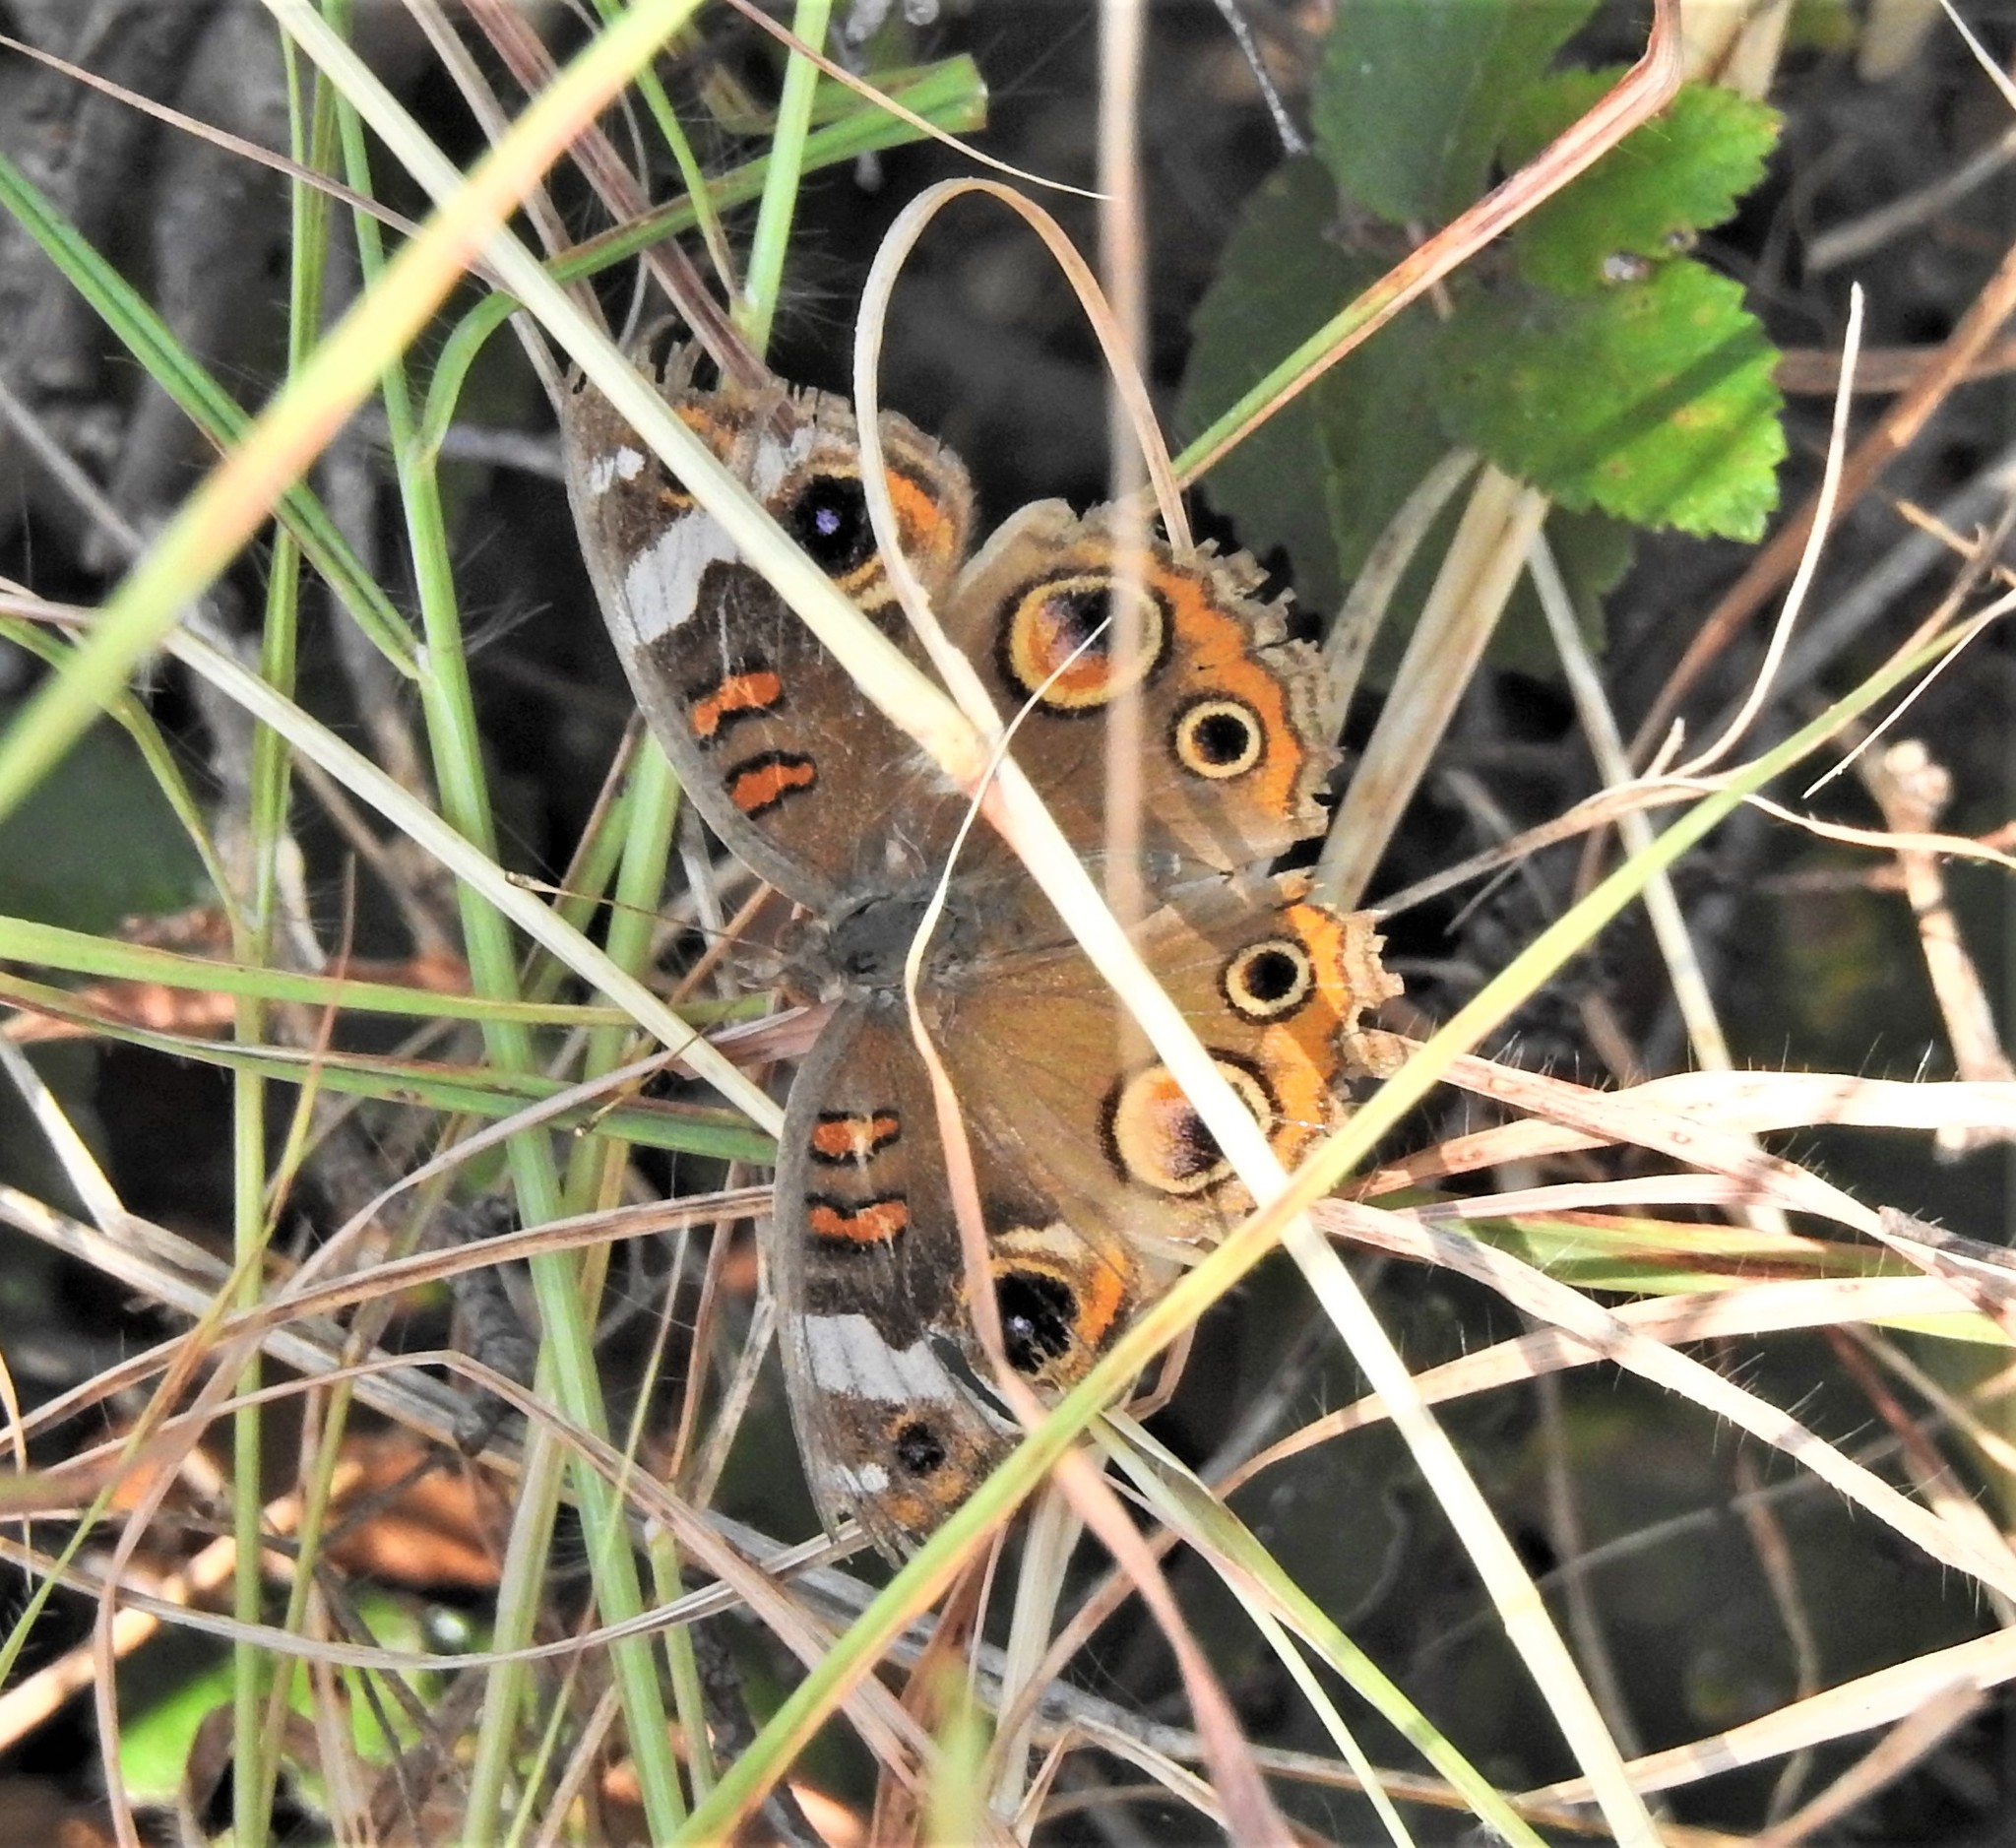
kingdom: Animalia
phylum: Arthropoda
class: Insecta
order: Lepidoptera
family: Nymphalidae
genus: Junonia
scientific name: Junonia coenia
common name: Common buckeye
